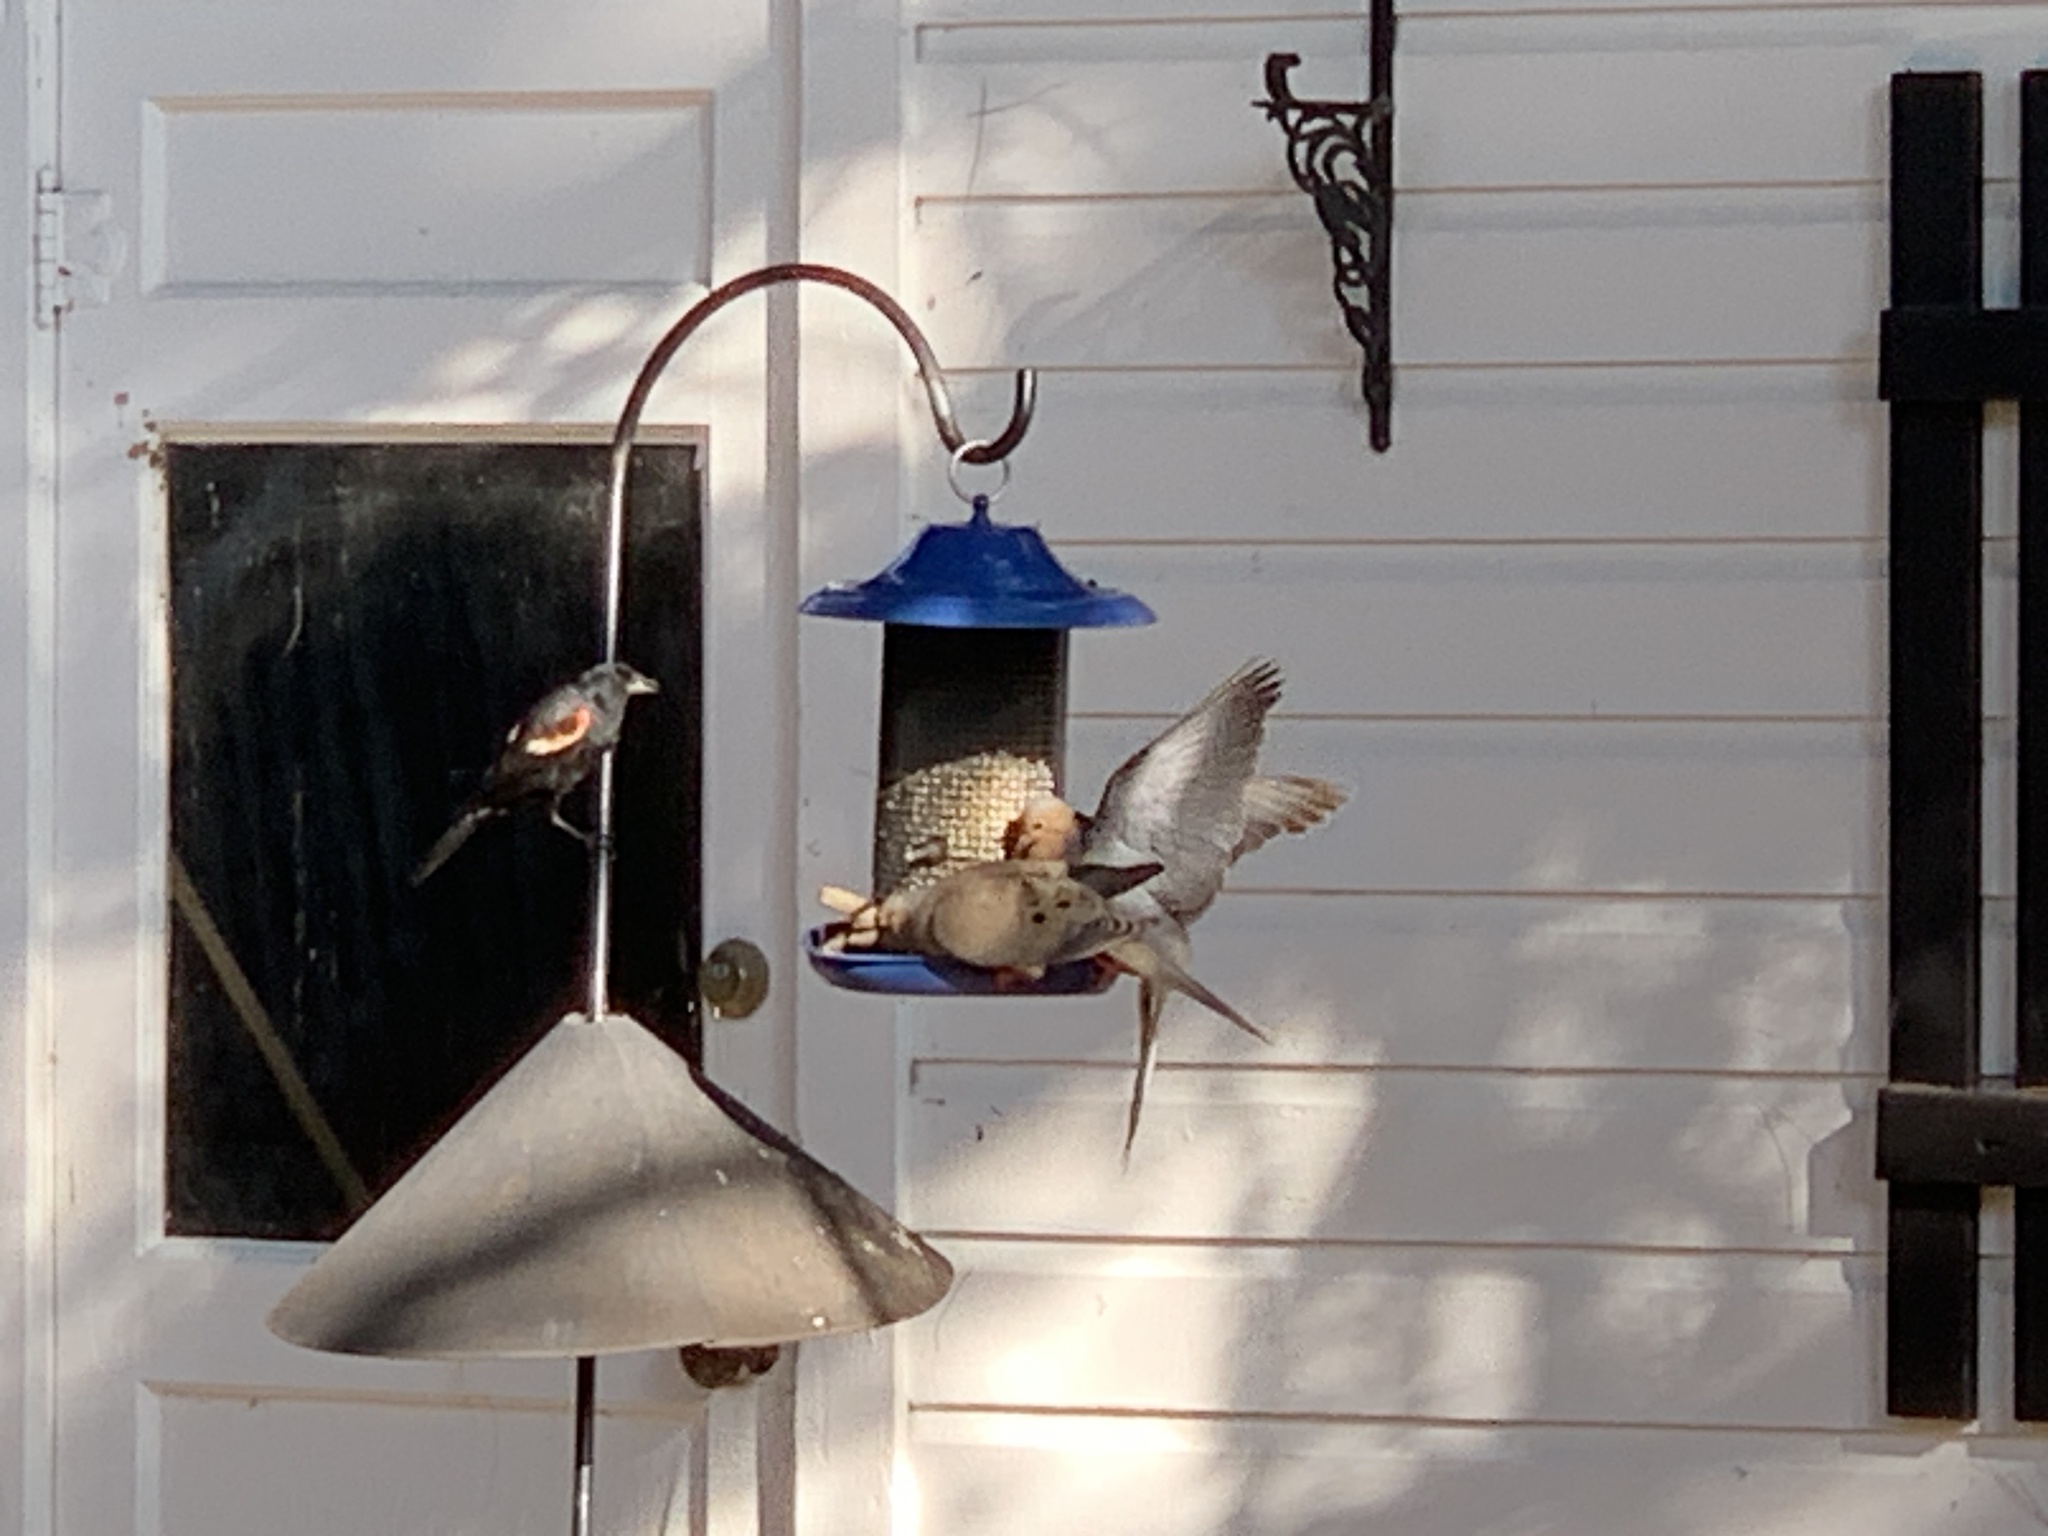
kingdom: Animalia
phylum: Chordata
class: Aves
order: Passeriformes
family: Icteridae
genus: Agelaius
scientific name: Agelaius phoeniceus
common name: Red-winged blackbird
